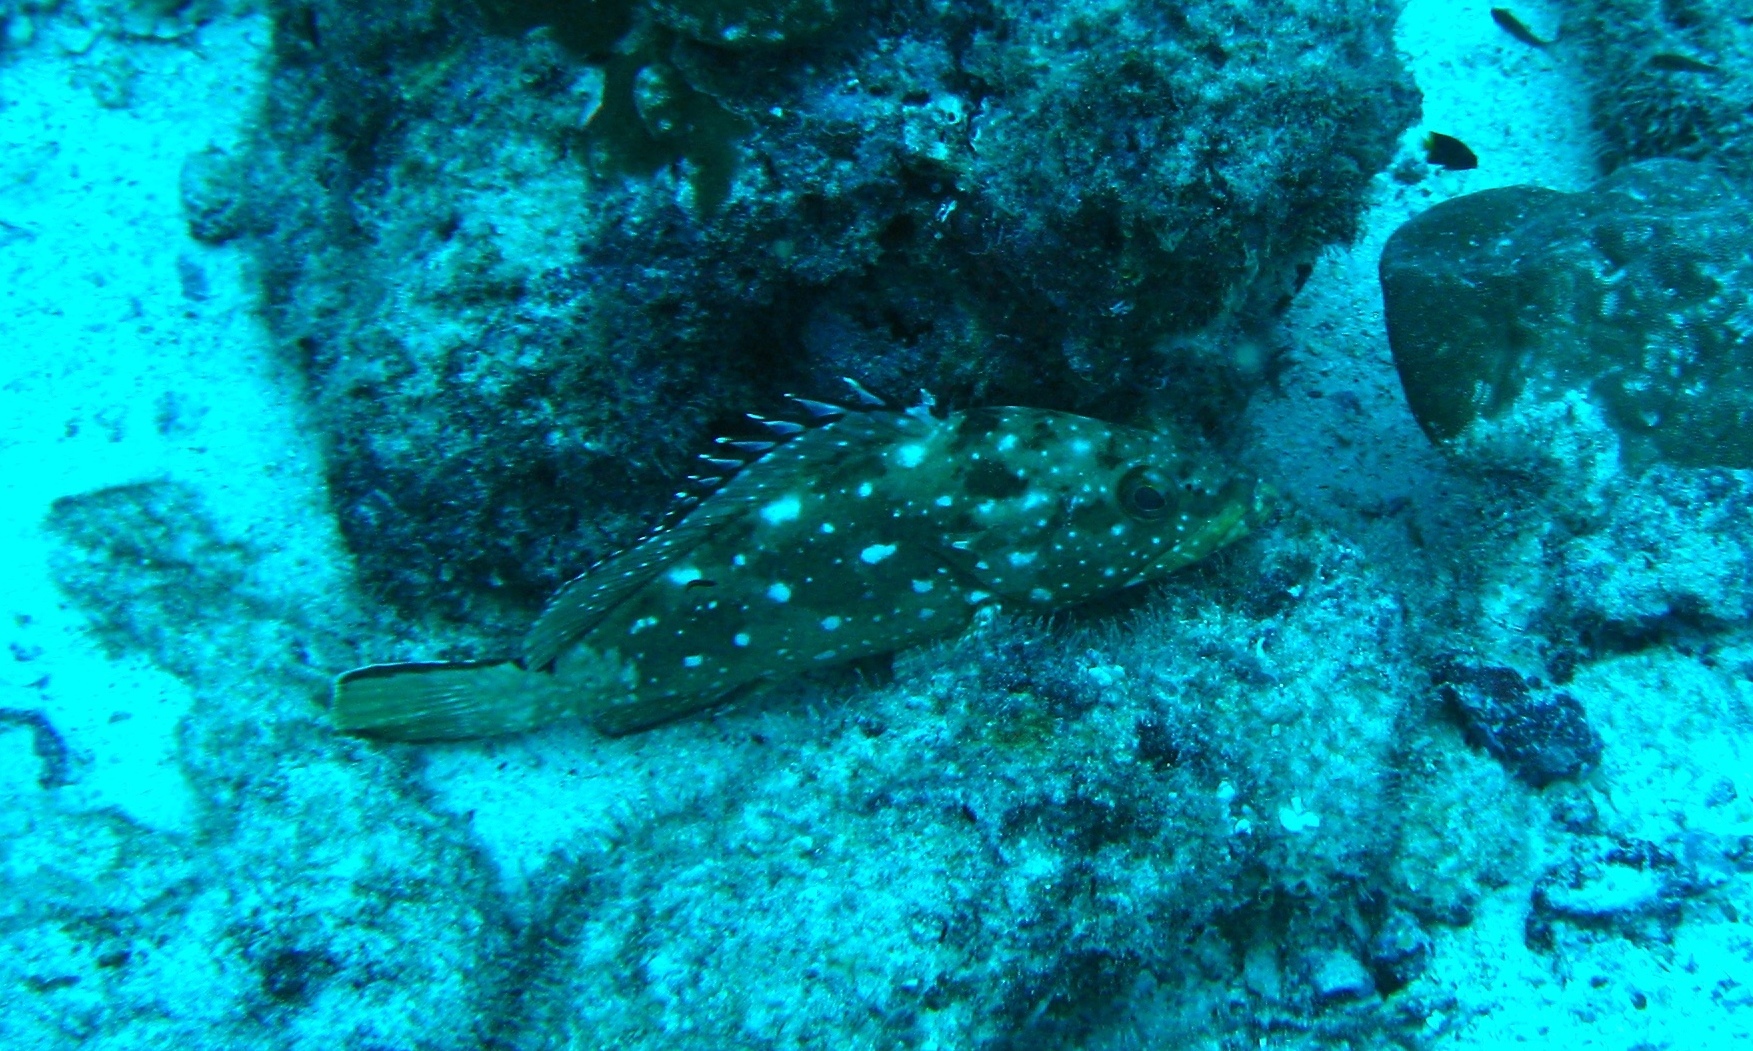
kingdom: Animalia
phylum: Chordata
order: Perciformes
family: Serranidae
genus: Epinephelus
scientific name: Epinephelus labriformis
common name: Flag cabrilla
